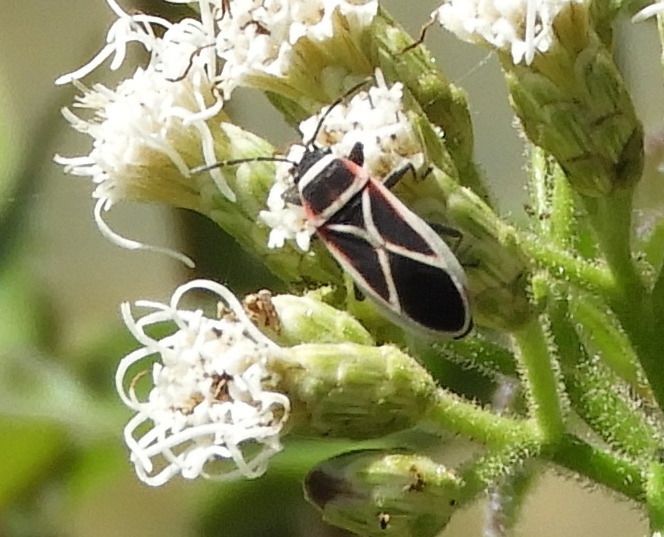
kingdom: Animalia
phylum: Arthropoda
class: Insecta
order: Hemiptera
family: Lygaeidae
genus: Ochrostomus
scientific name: Ochrostomus pulchellus
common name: Lygaeid bug
